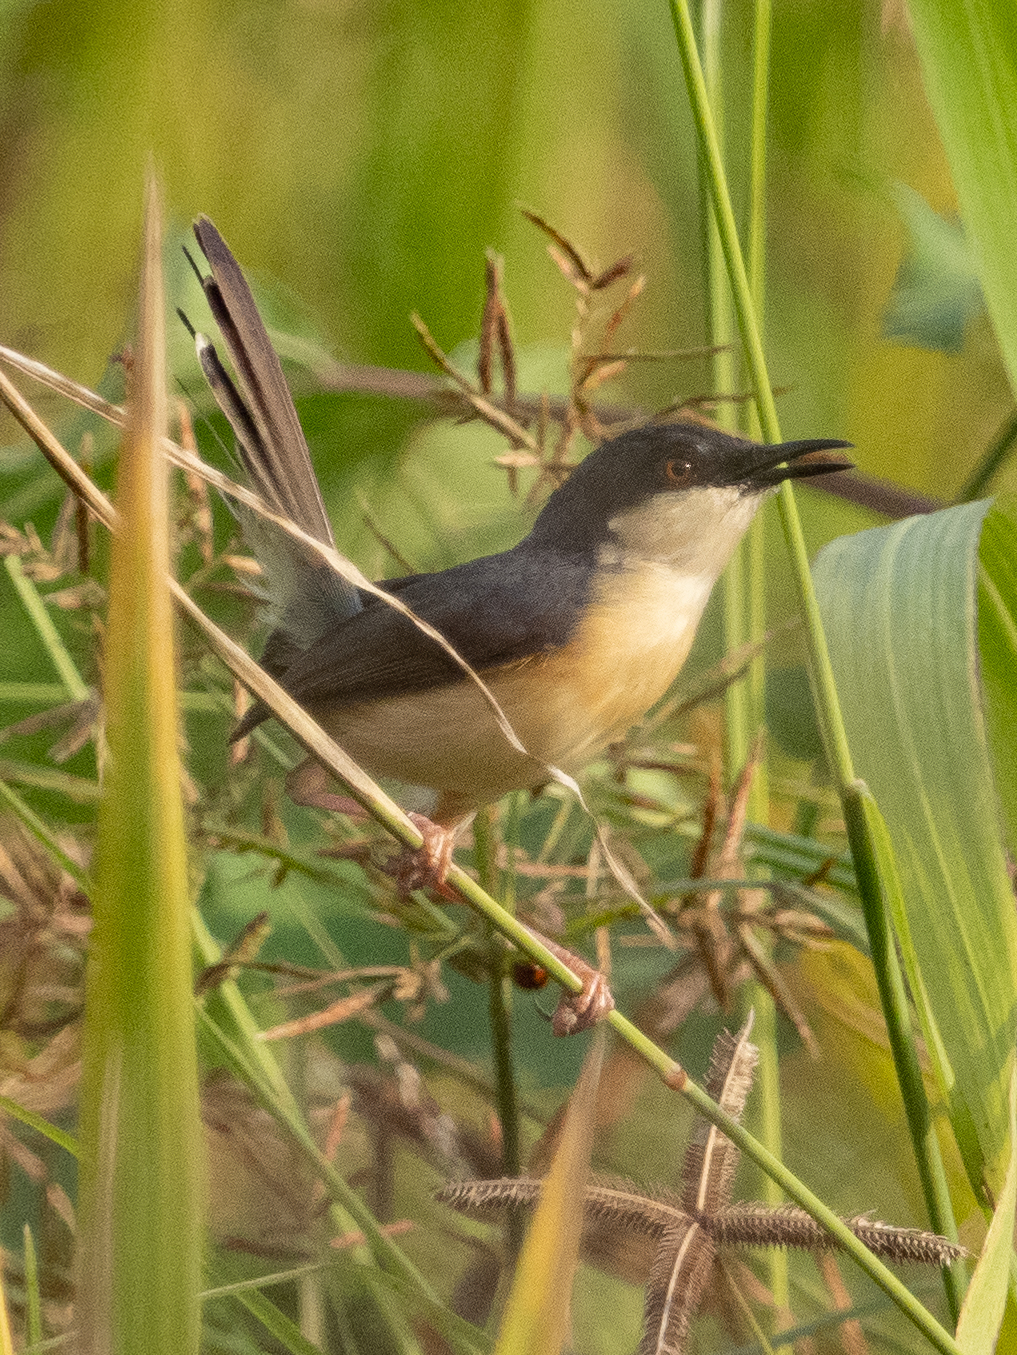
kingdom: Animalia
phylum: Chordata
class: Aves
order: Passeriformes
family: Cisticolidae
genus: Prinia
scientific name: Prinia socialis
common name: Ashy prinia
